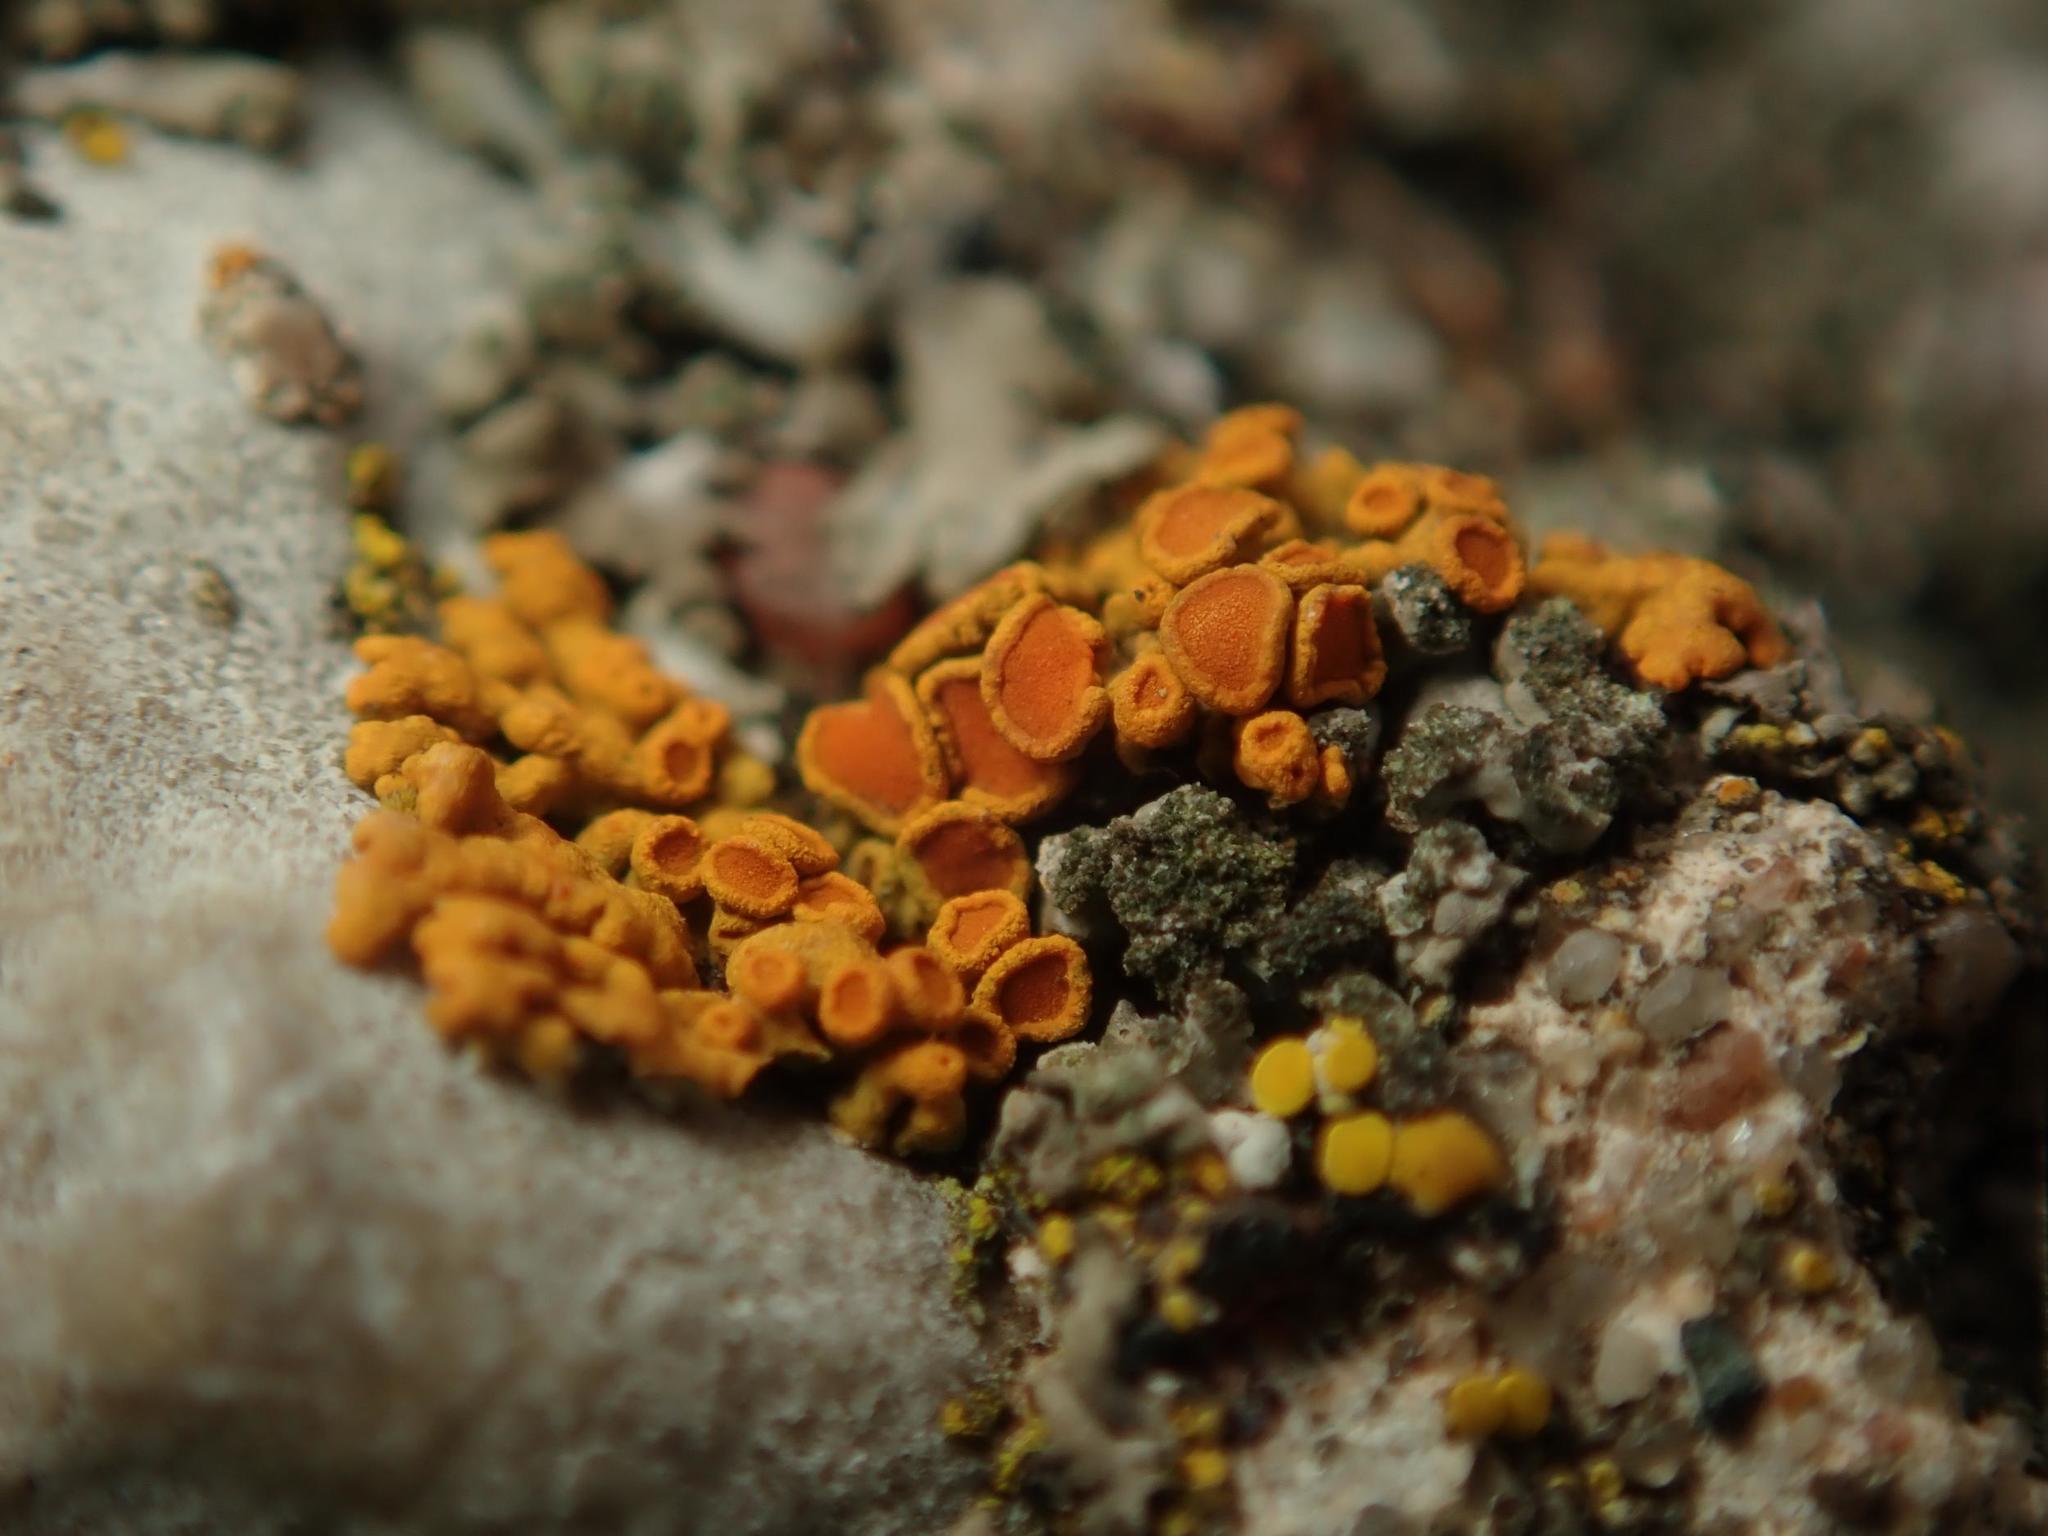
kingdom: Fungi
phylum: Ascomycota
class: Lecanoromycetes
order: Teloschistales
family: Teloschistaceae
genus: Xanthoria
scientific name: Xanthoria elegans
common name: Elegant sunburst lichen
